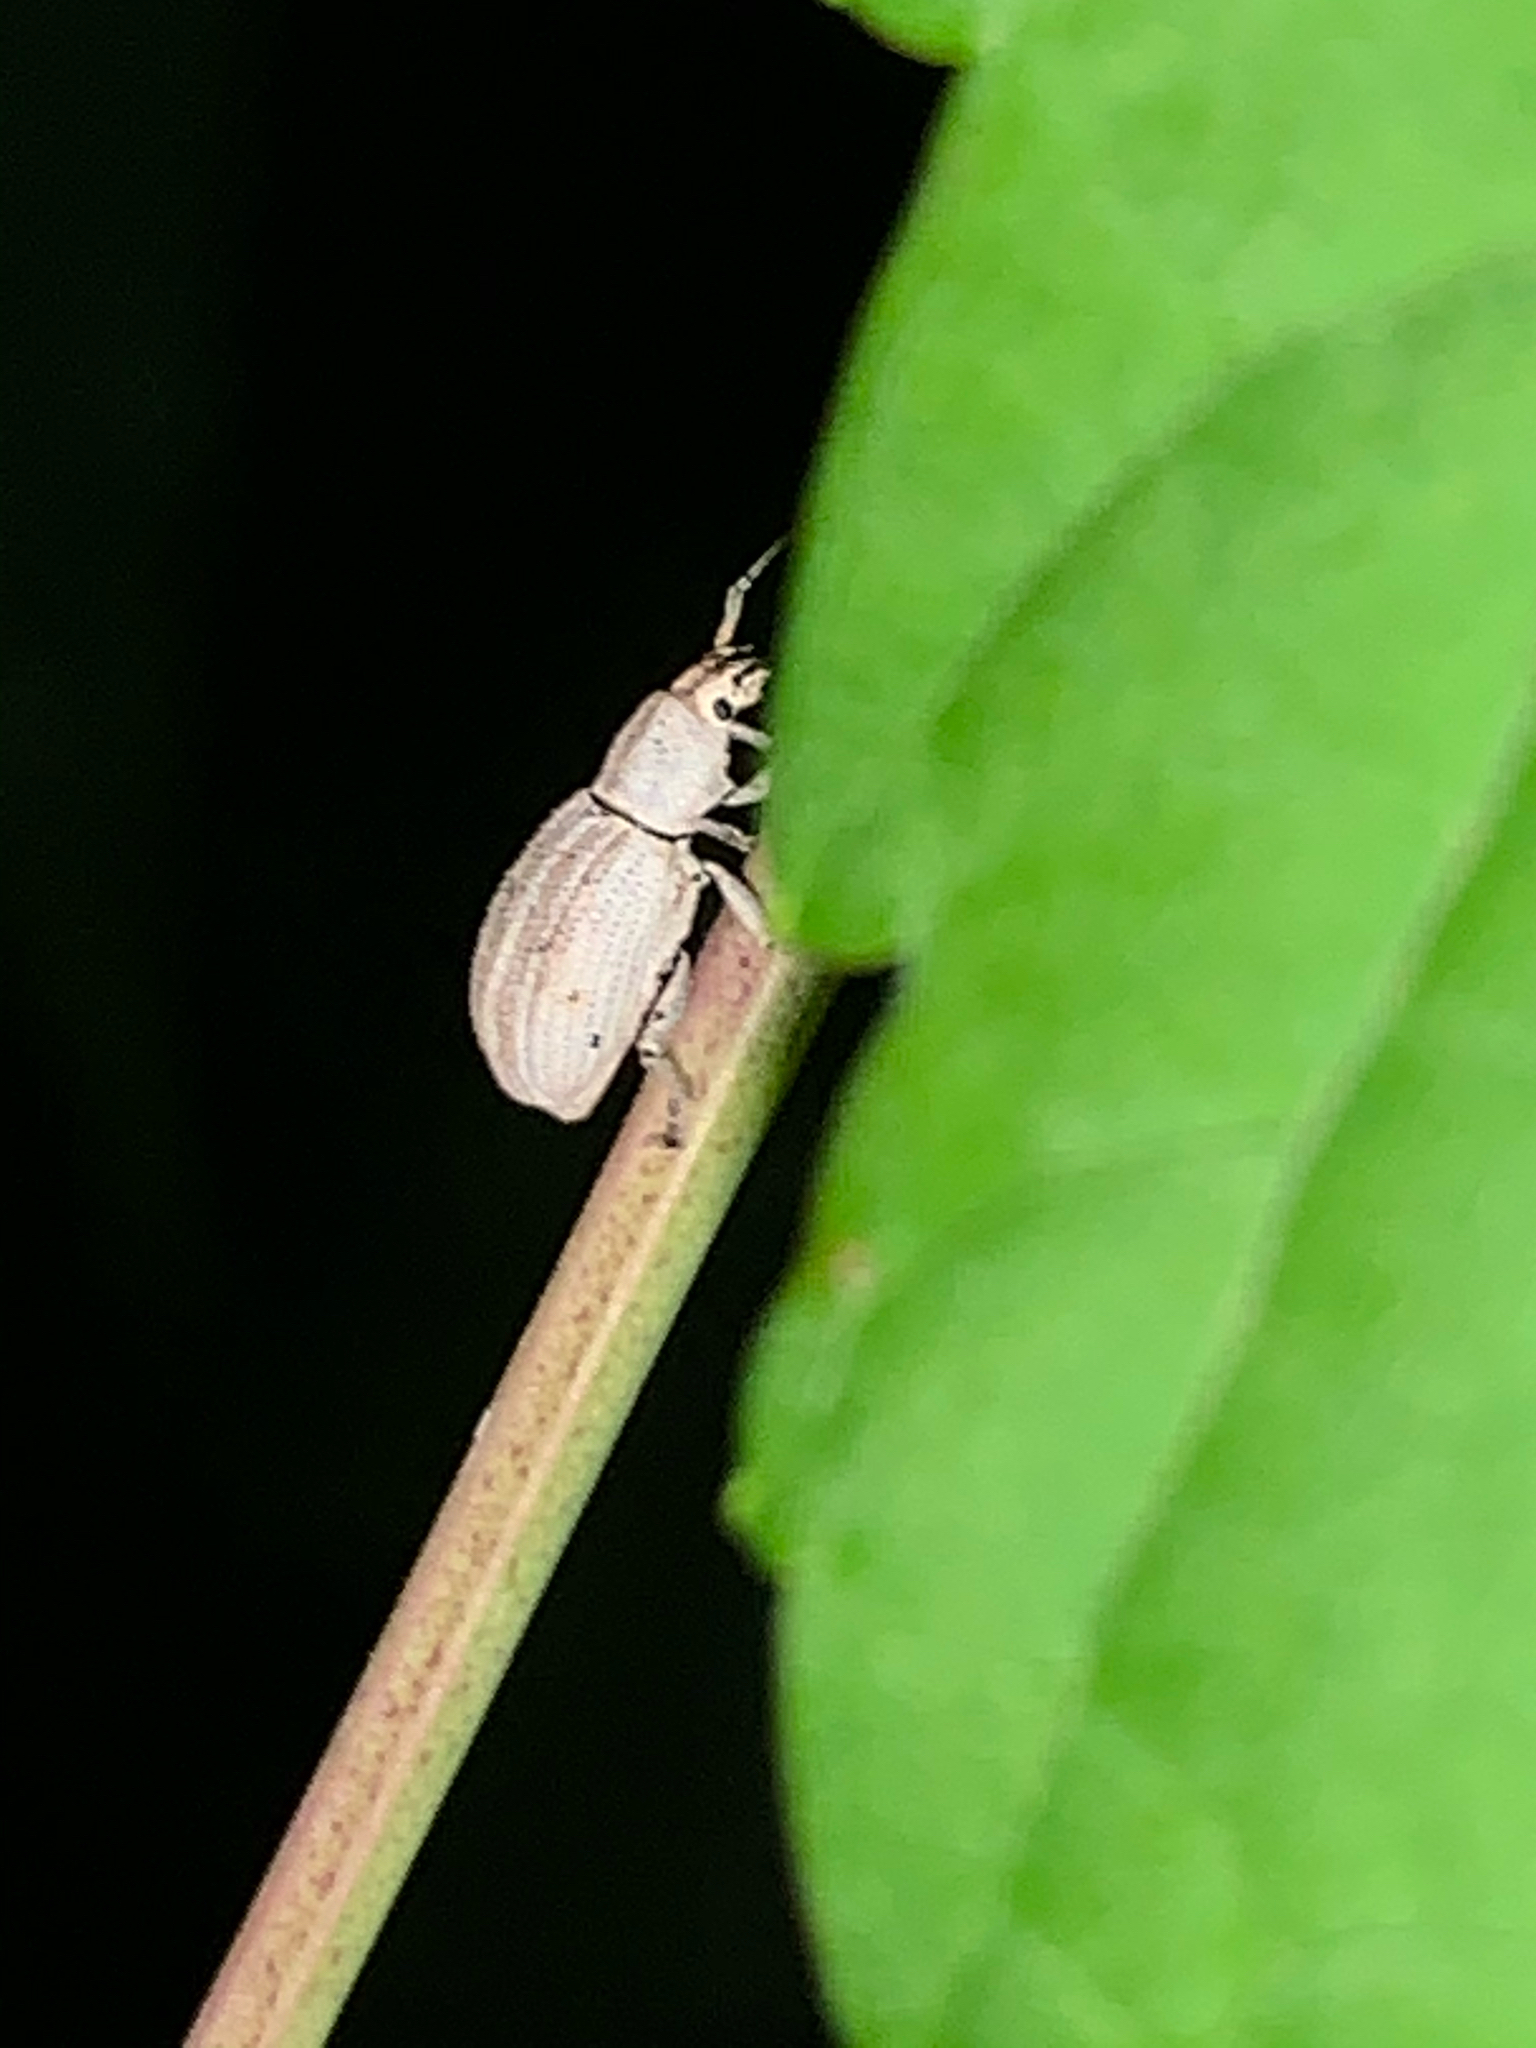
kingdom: Animalia
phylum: Arthropoda
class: Insecta
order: Coleoptera
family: Curculionidae
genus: Aphrastus
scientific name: Aphrastus taeniatus
